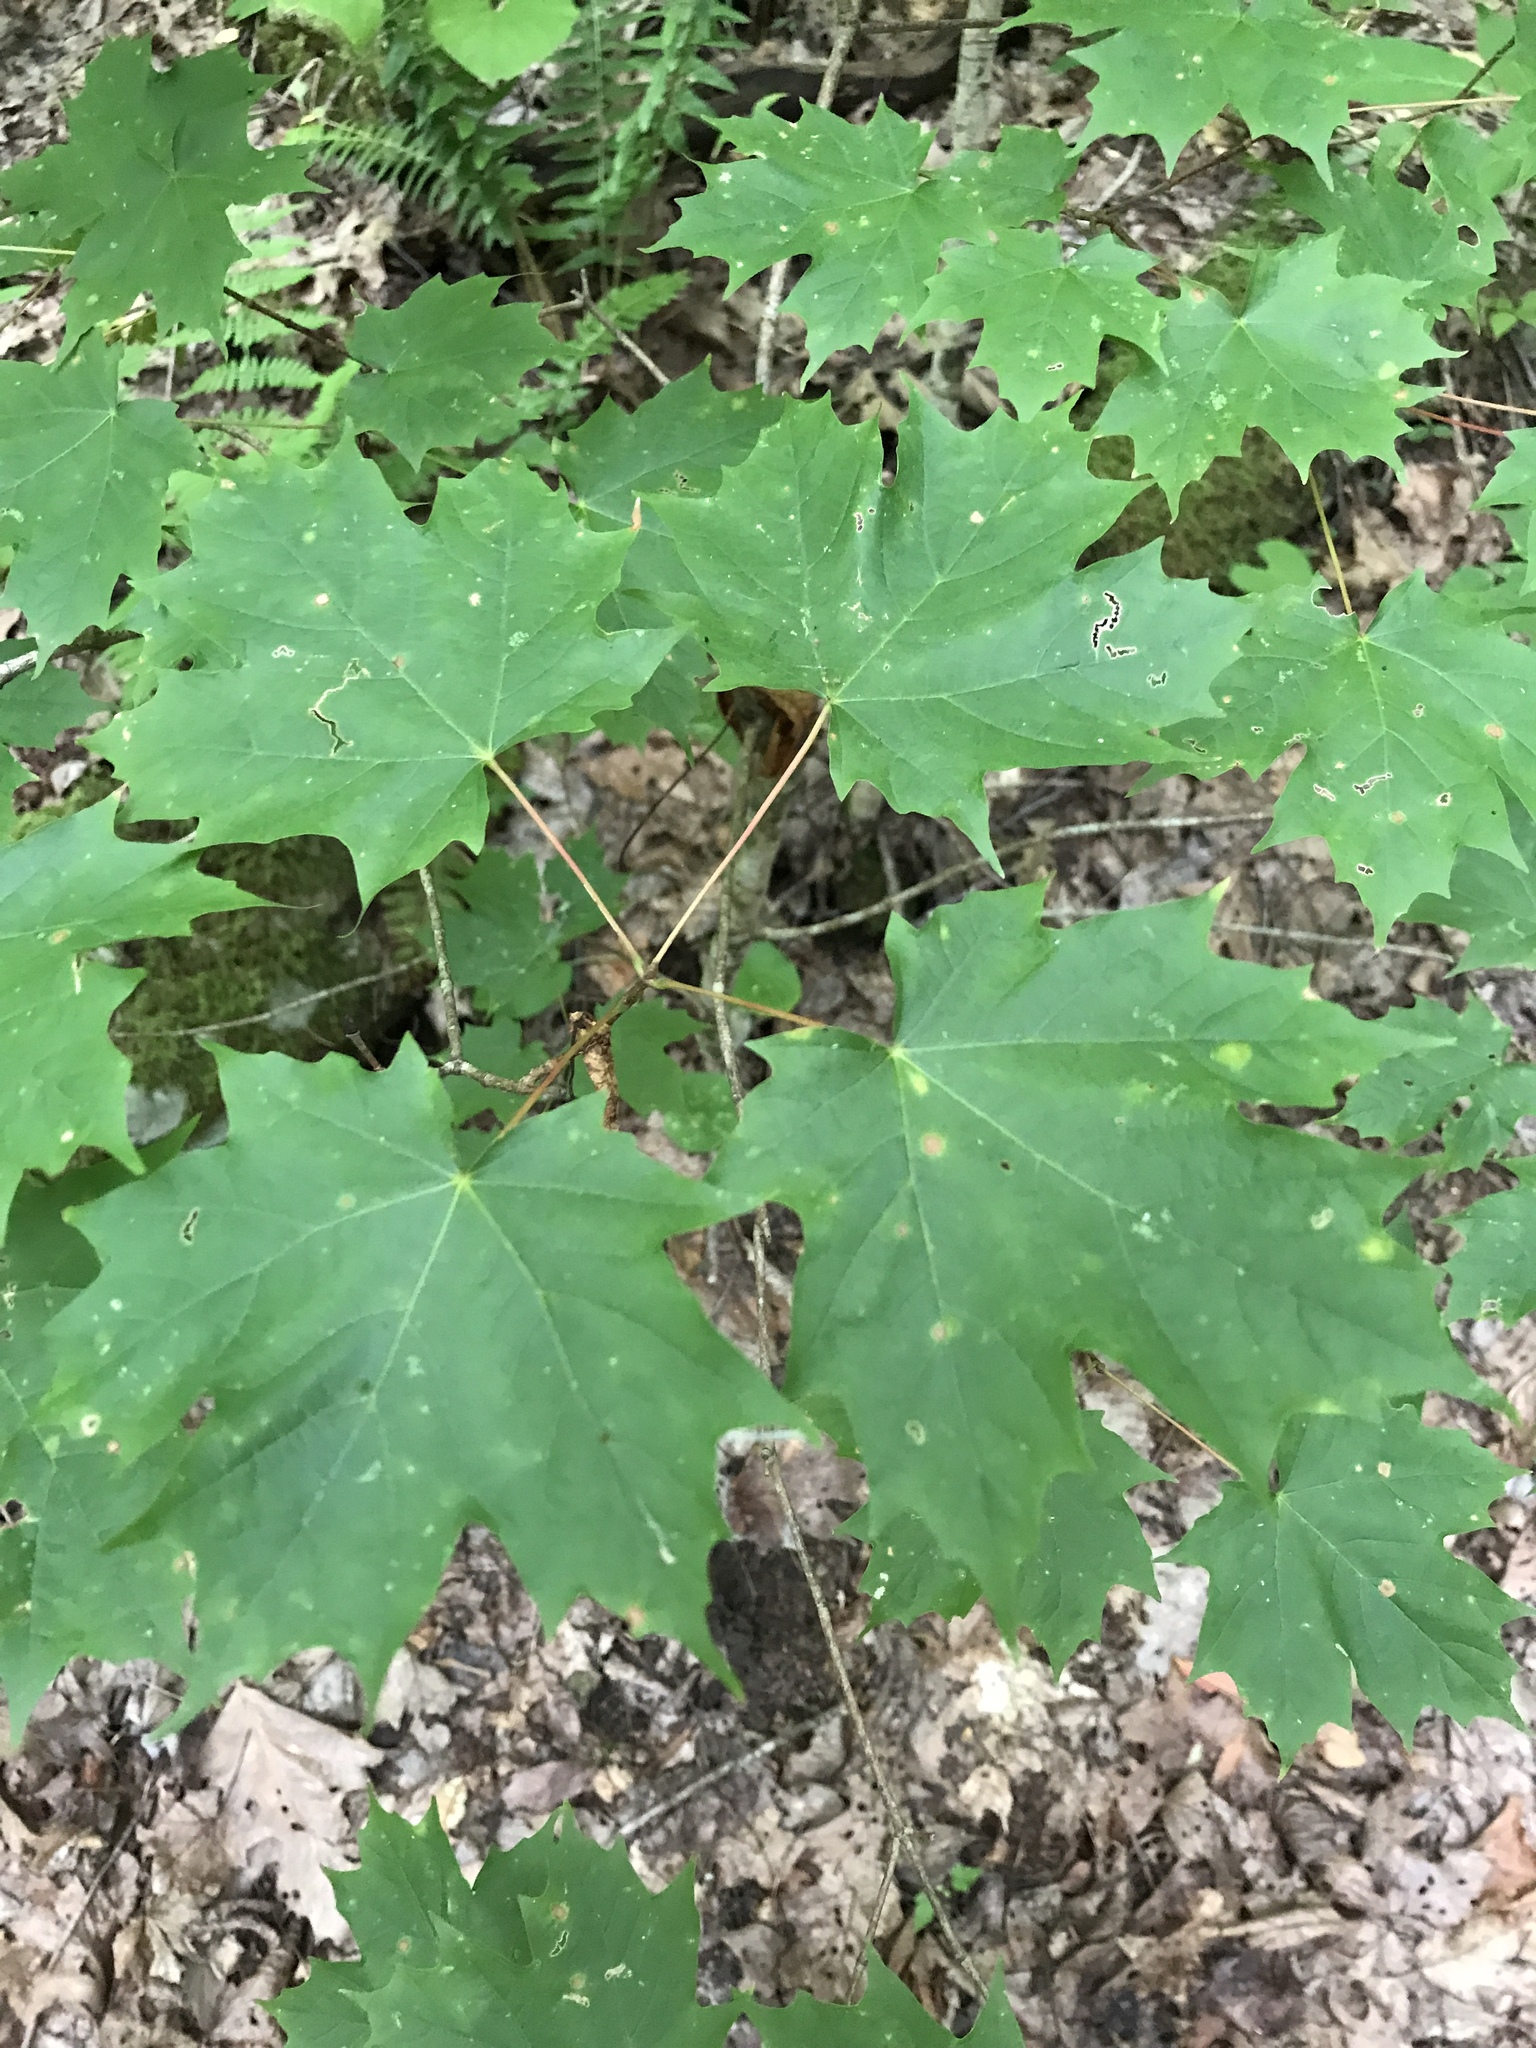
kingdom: Plantae
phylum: Tracheophyta
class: Magnoliopsida
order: Sapindales
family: Sapindaceae
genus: Acer
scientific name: Acer saccharum
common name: Sugar maple
